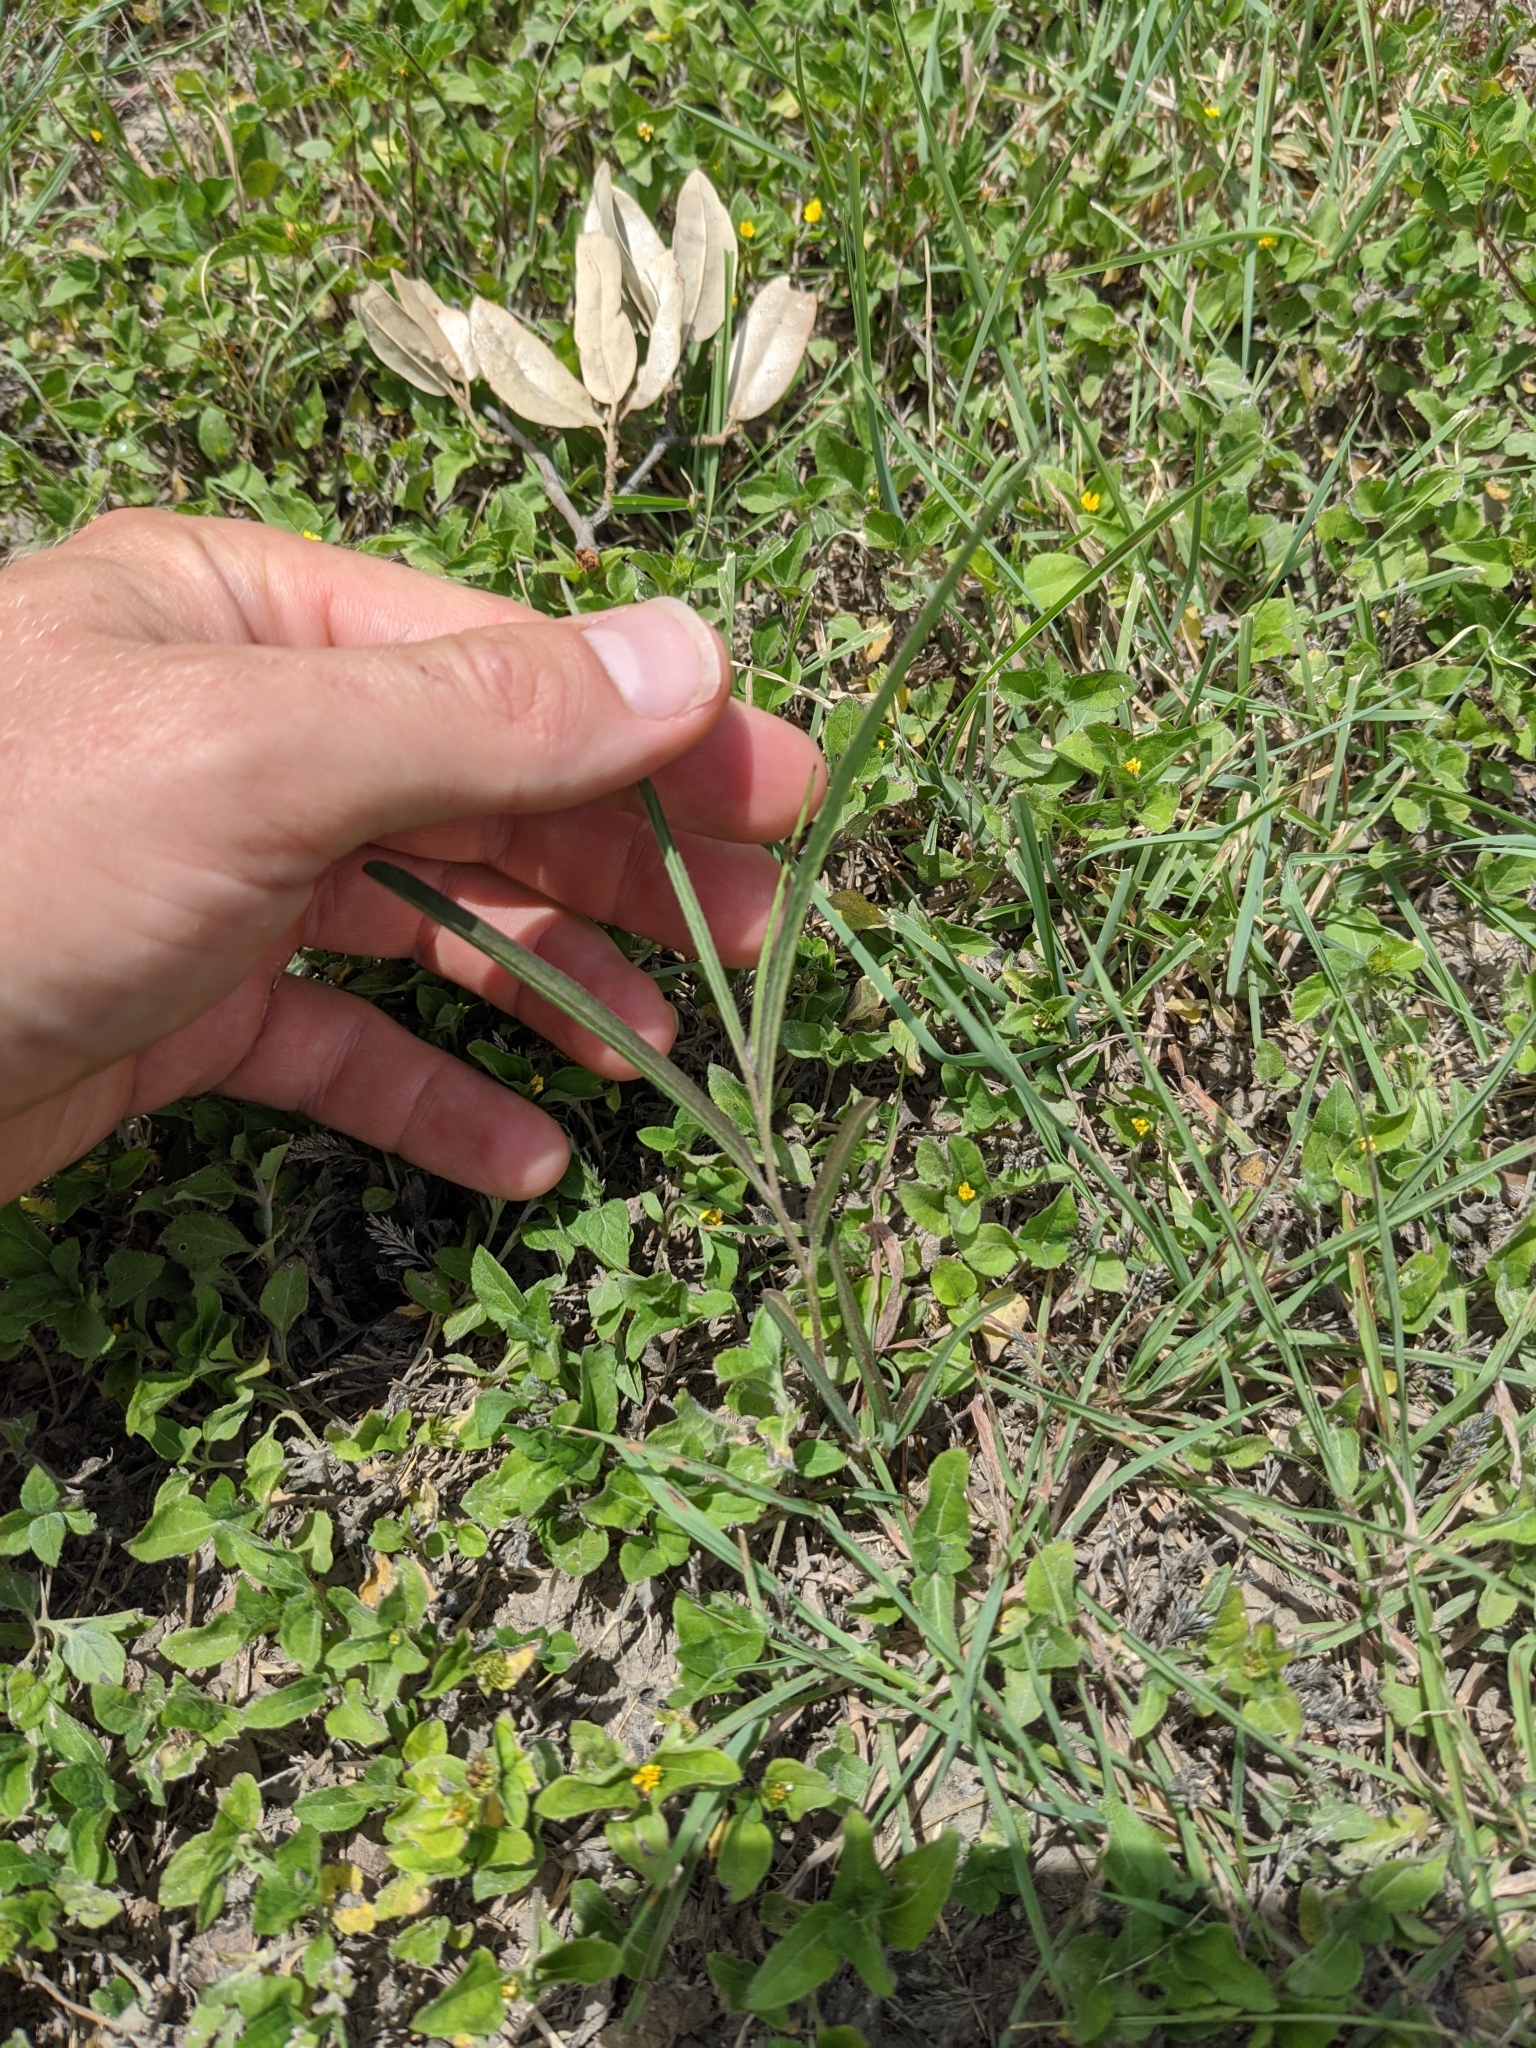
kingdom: Plantae
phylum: Tracheophyta
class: Magnoliopsida
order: Piperales
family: Aristolochiaceae
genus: Aristolochia
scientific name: Aristolochia erecta
